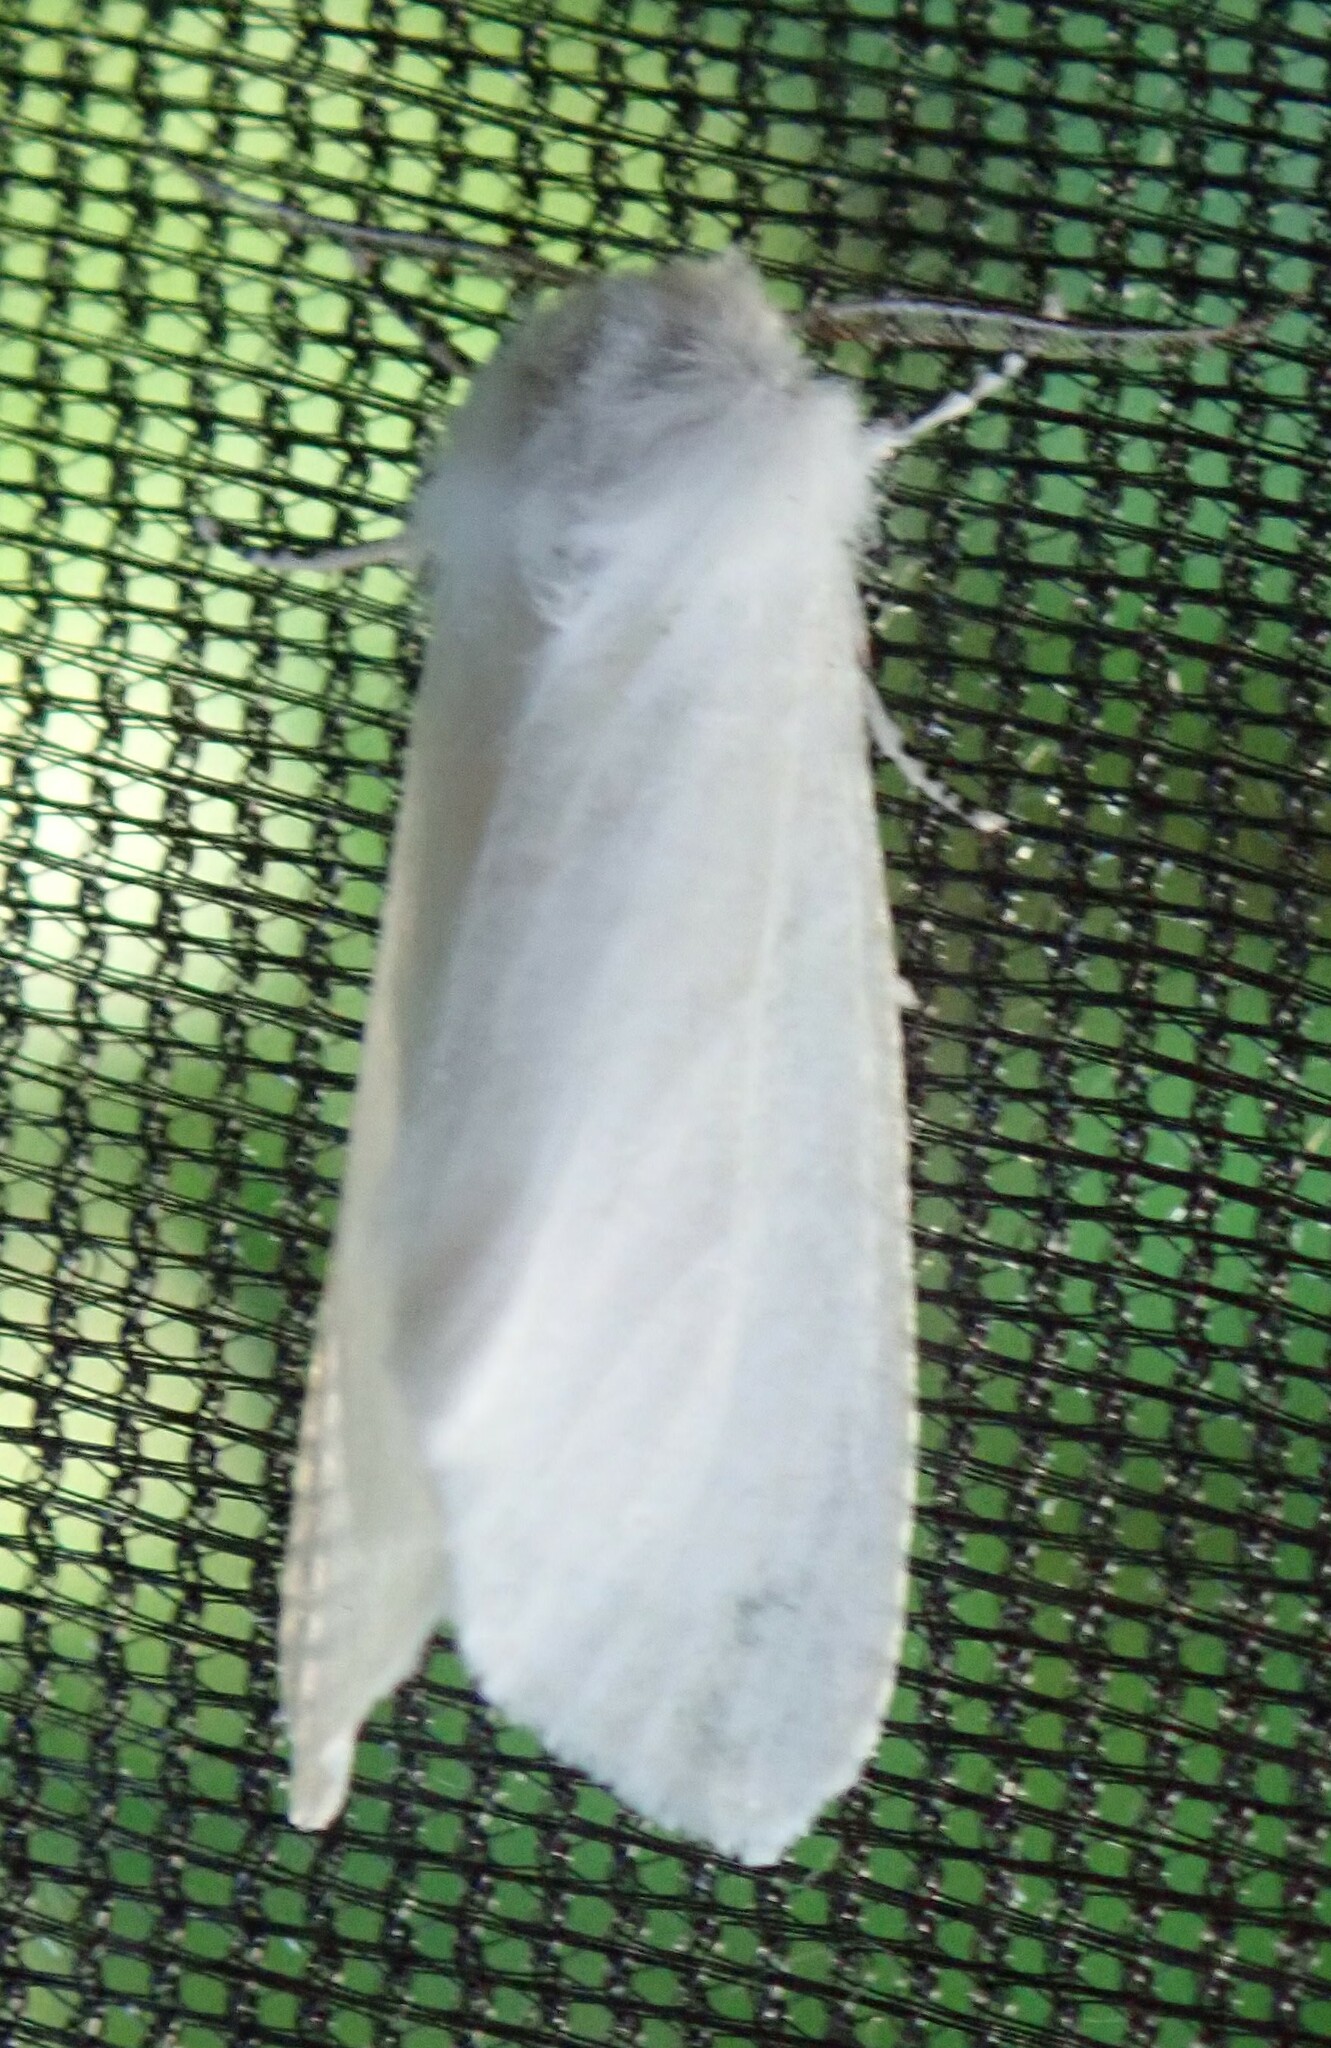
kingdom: Animalia
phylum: Arthropoda
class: Insecta
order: Lepidoptera
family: Erebidae
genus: Hyphantria
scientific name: Hyphantria cunea
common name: American white moth
